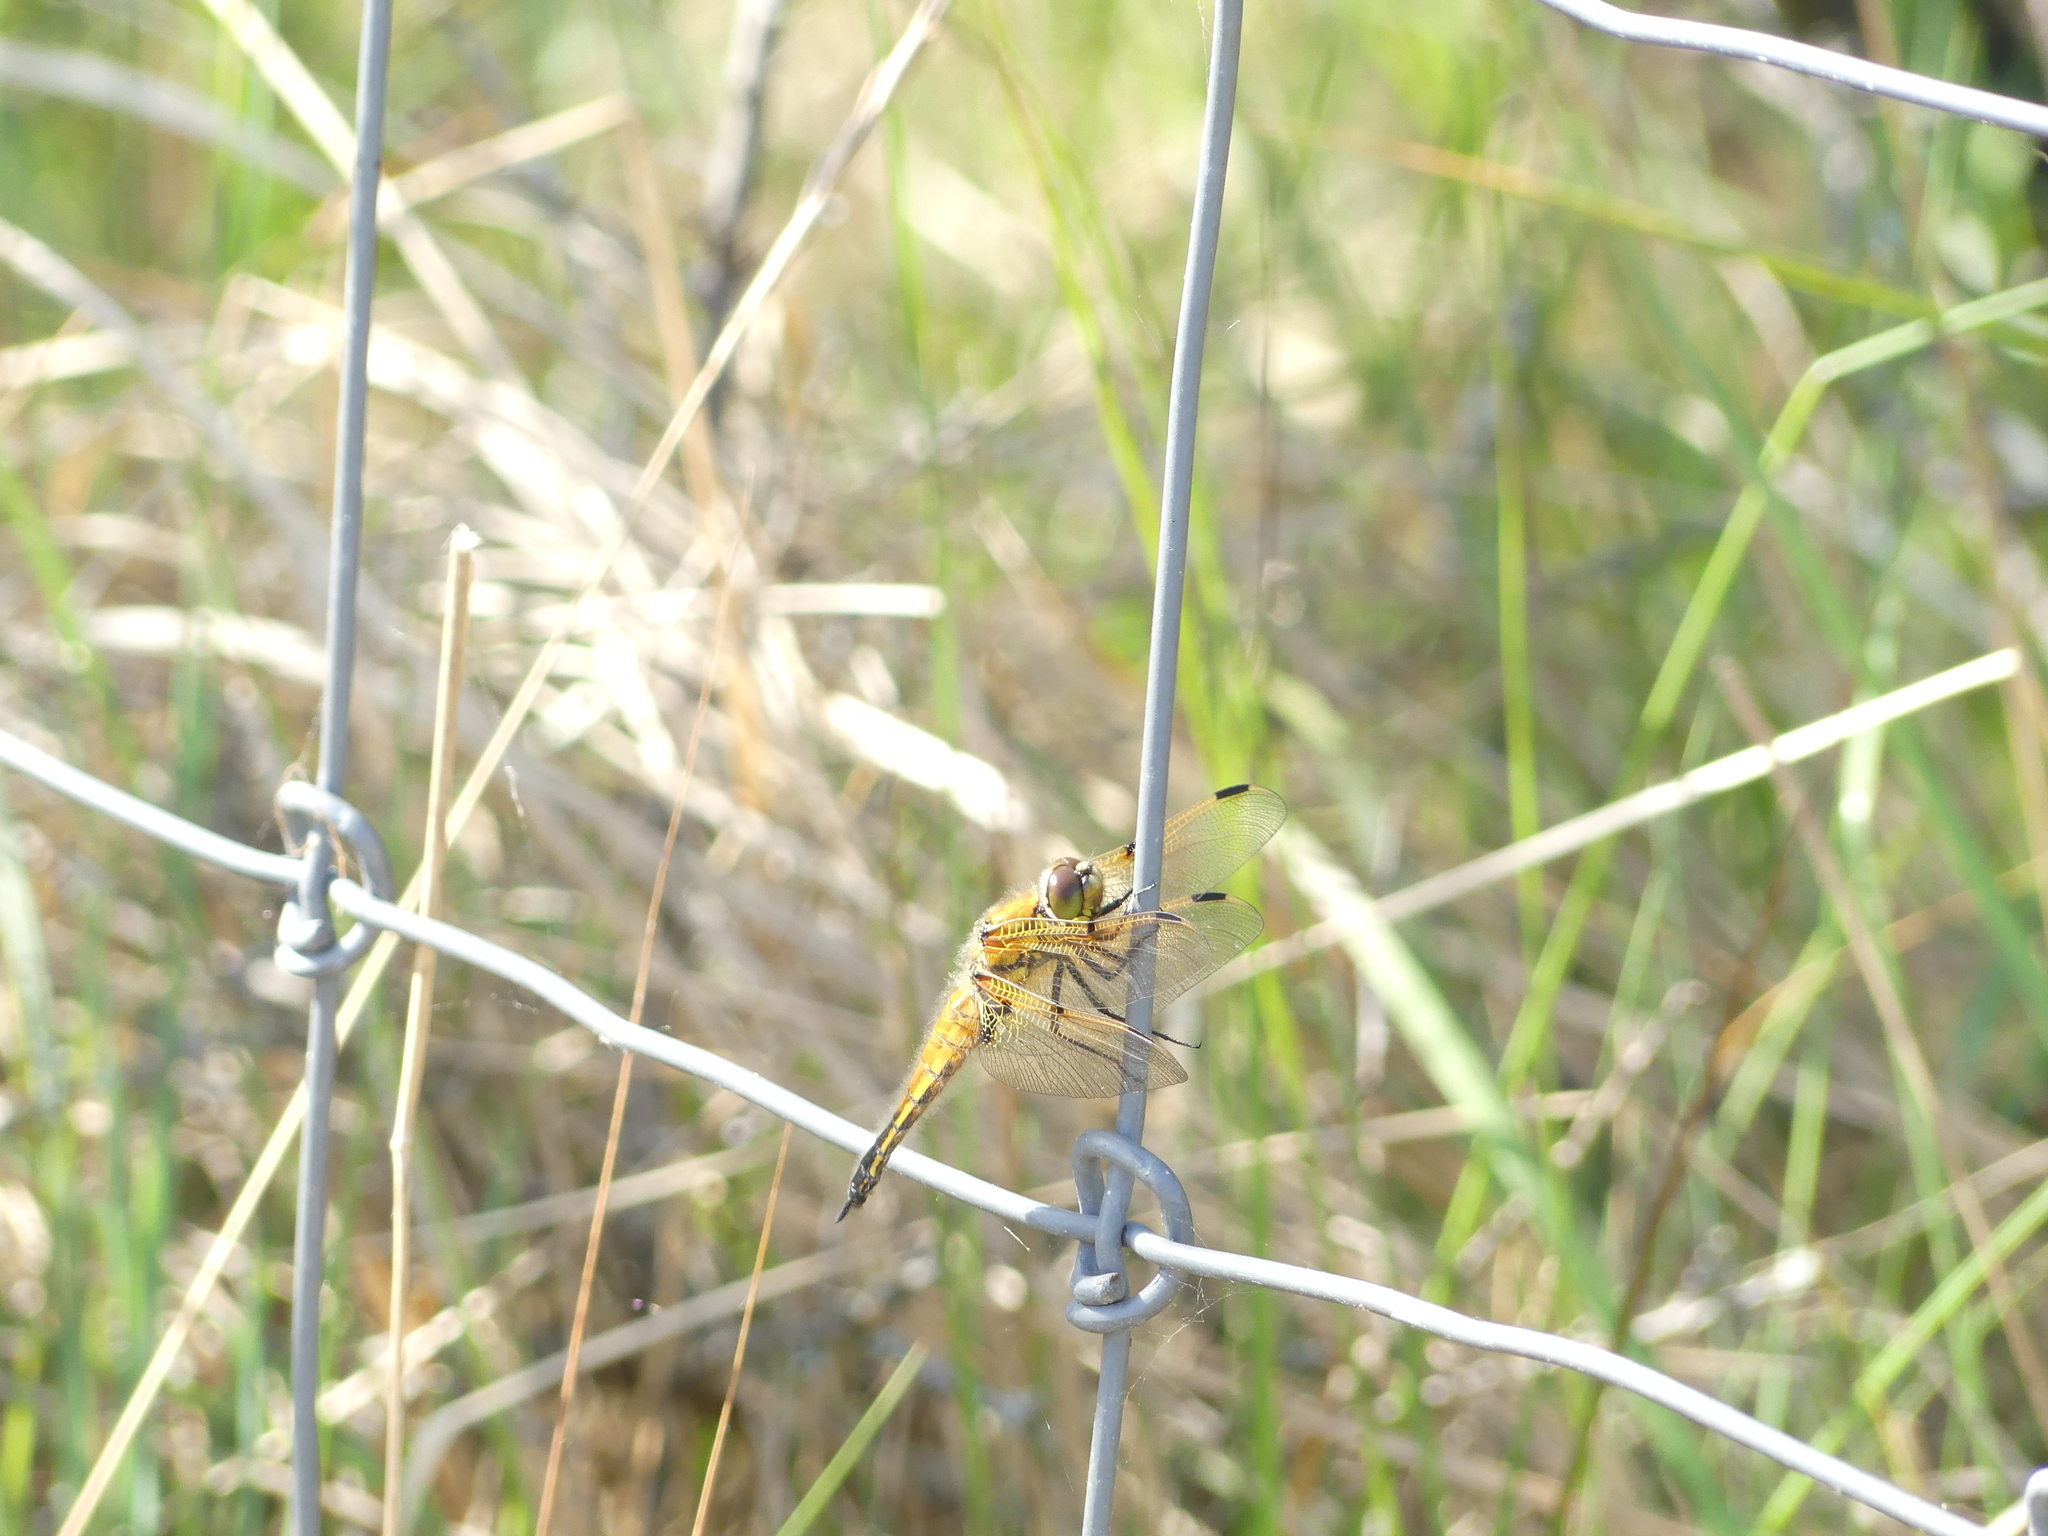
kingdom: Animalia
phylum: Arthropoda
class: Insecta
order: Odonata
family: Libellulidae
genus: Libellula
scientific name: Libellula quadrimaculata
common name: Four-spotted chaser
